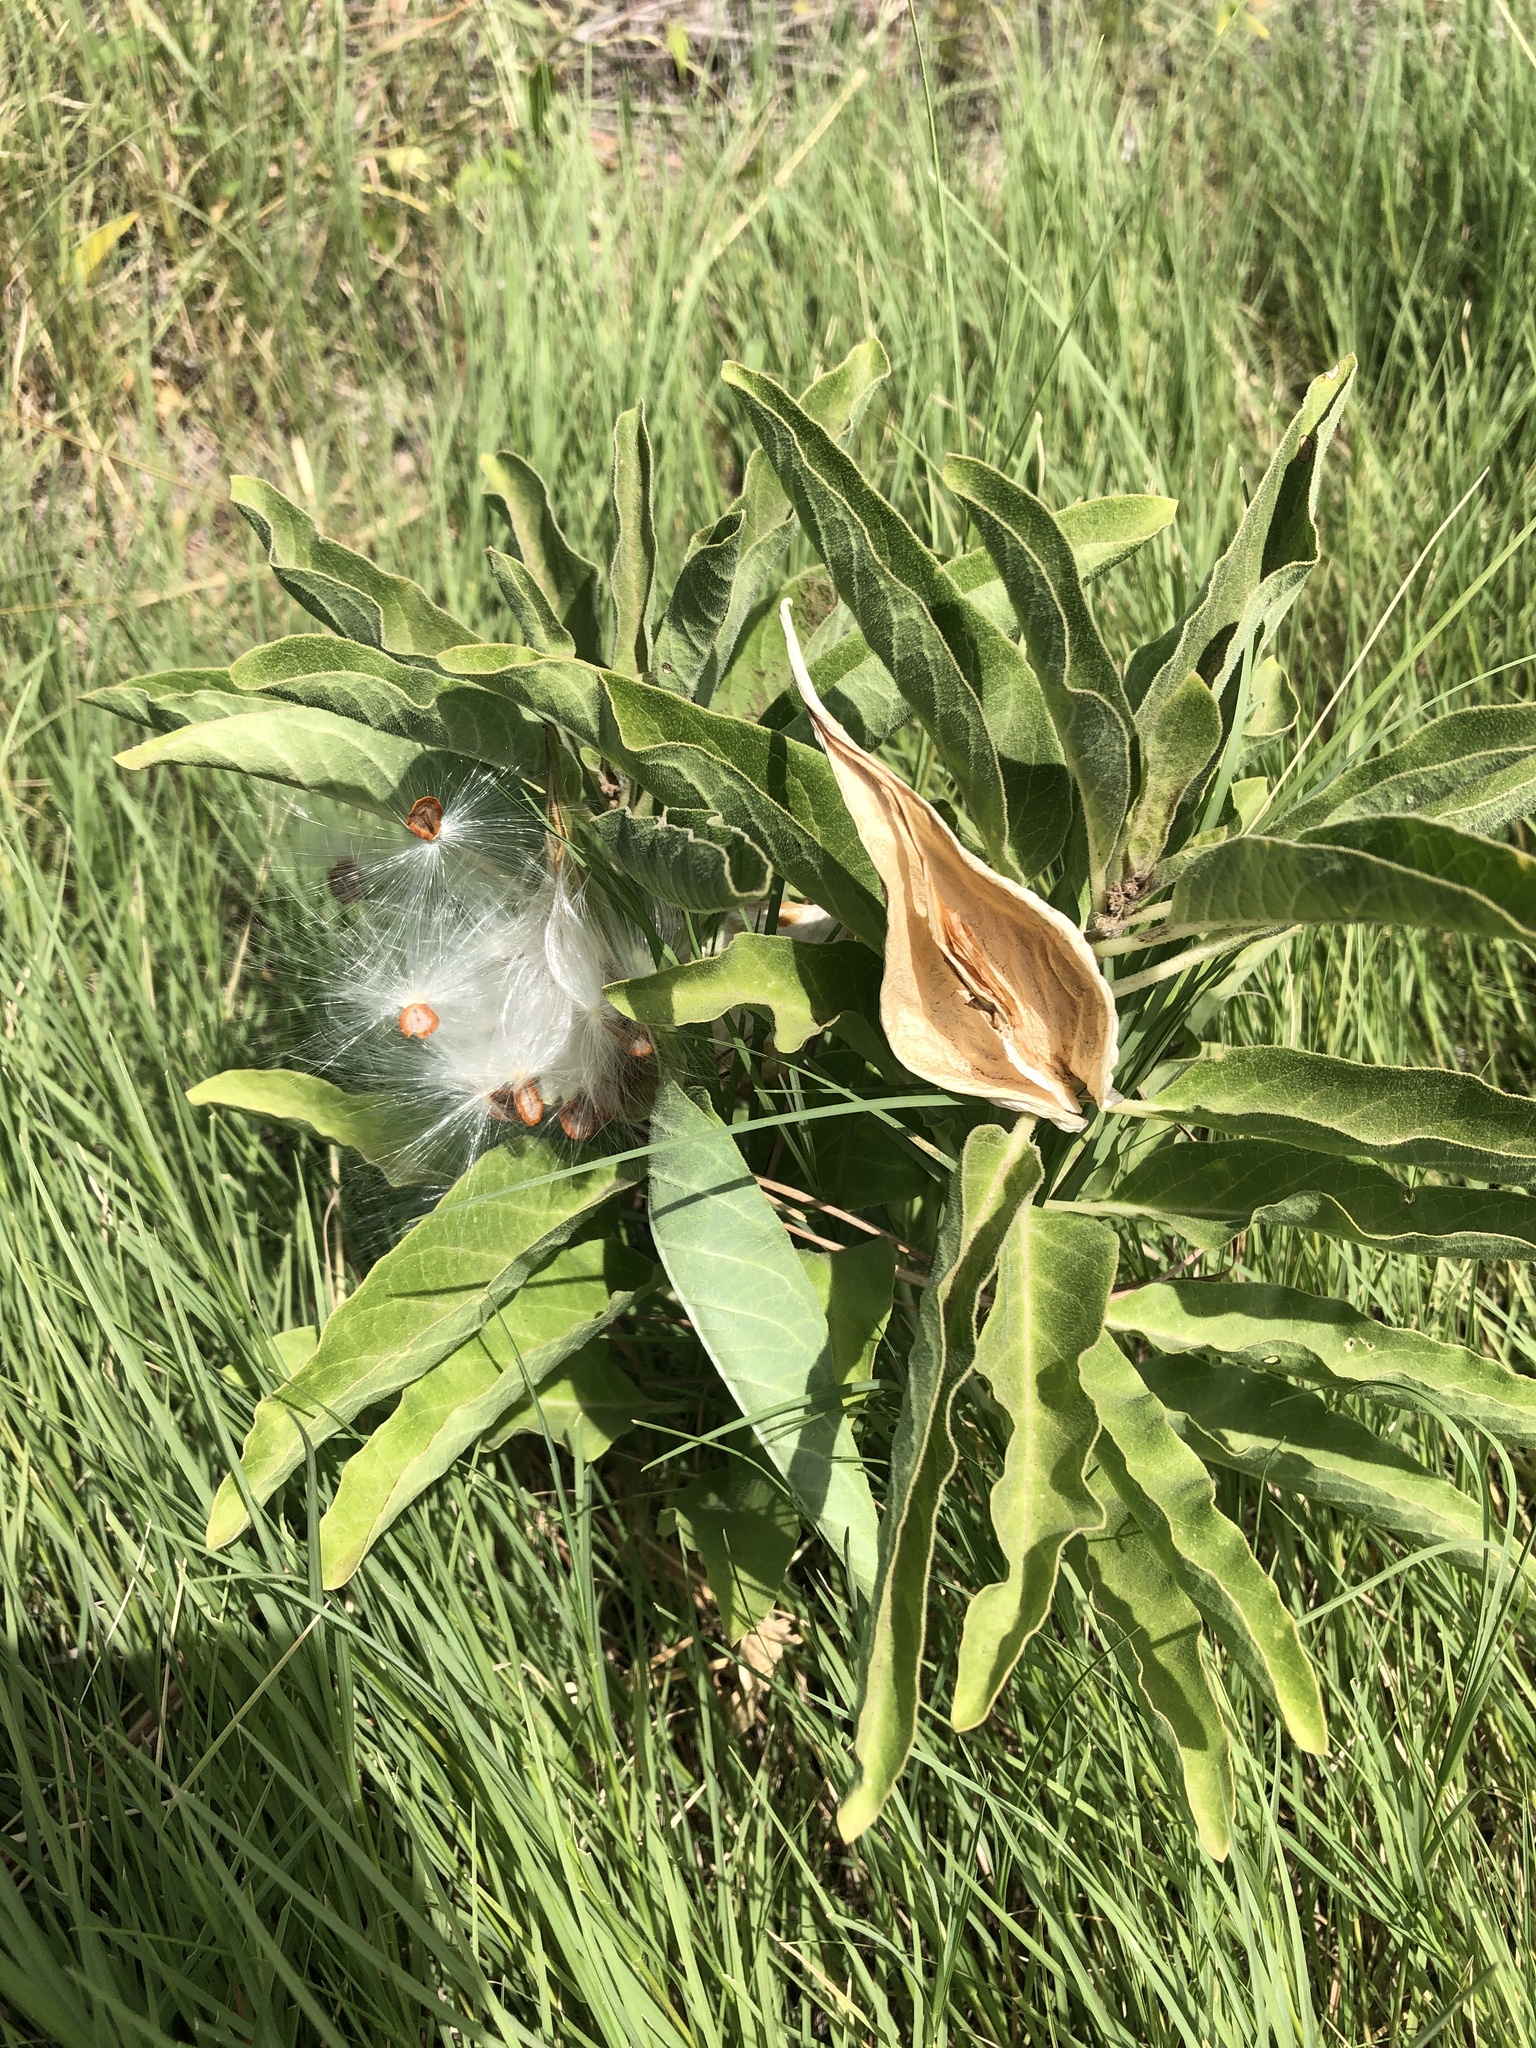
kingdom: Plantae
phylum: Tracheophyta
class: Magnoliopsida
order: Gentianales
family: Apocynaceae
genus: Asclepias
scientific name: Asclepias oenotheroides
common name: Zizotes milkweed
